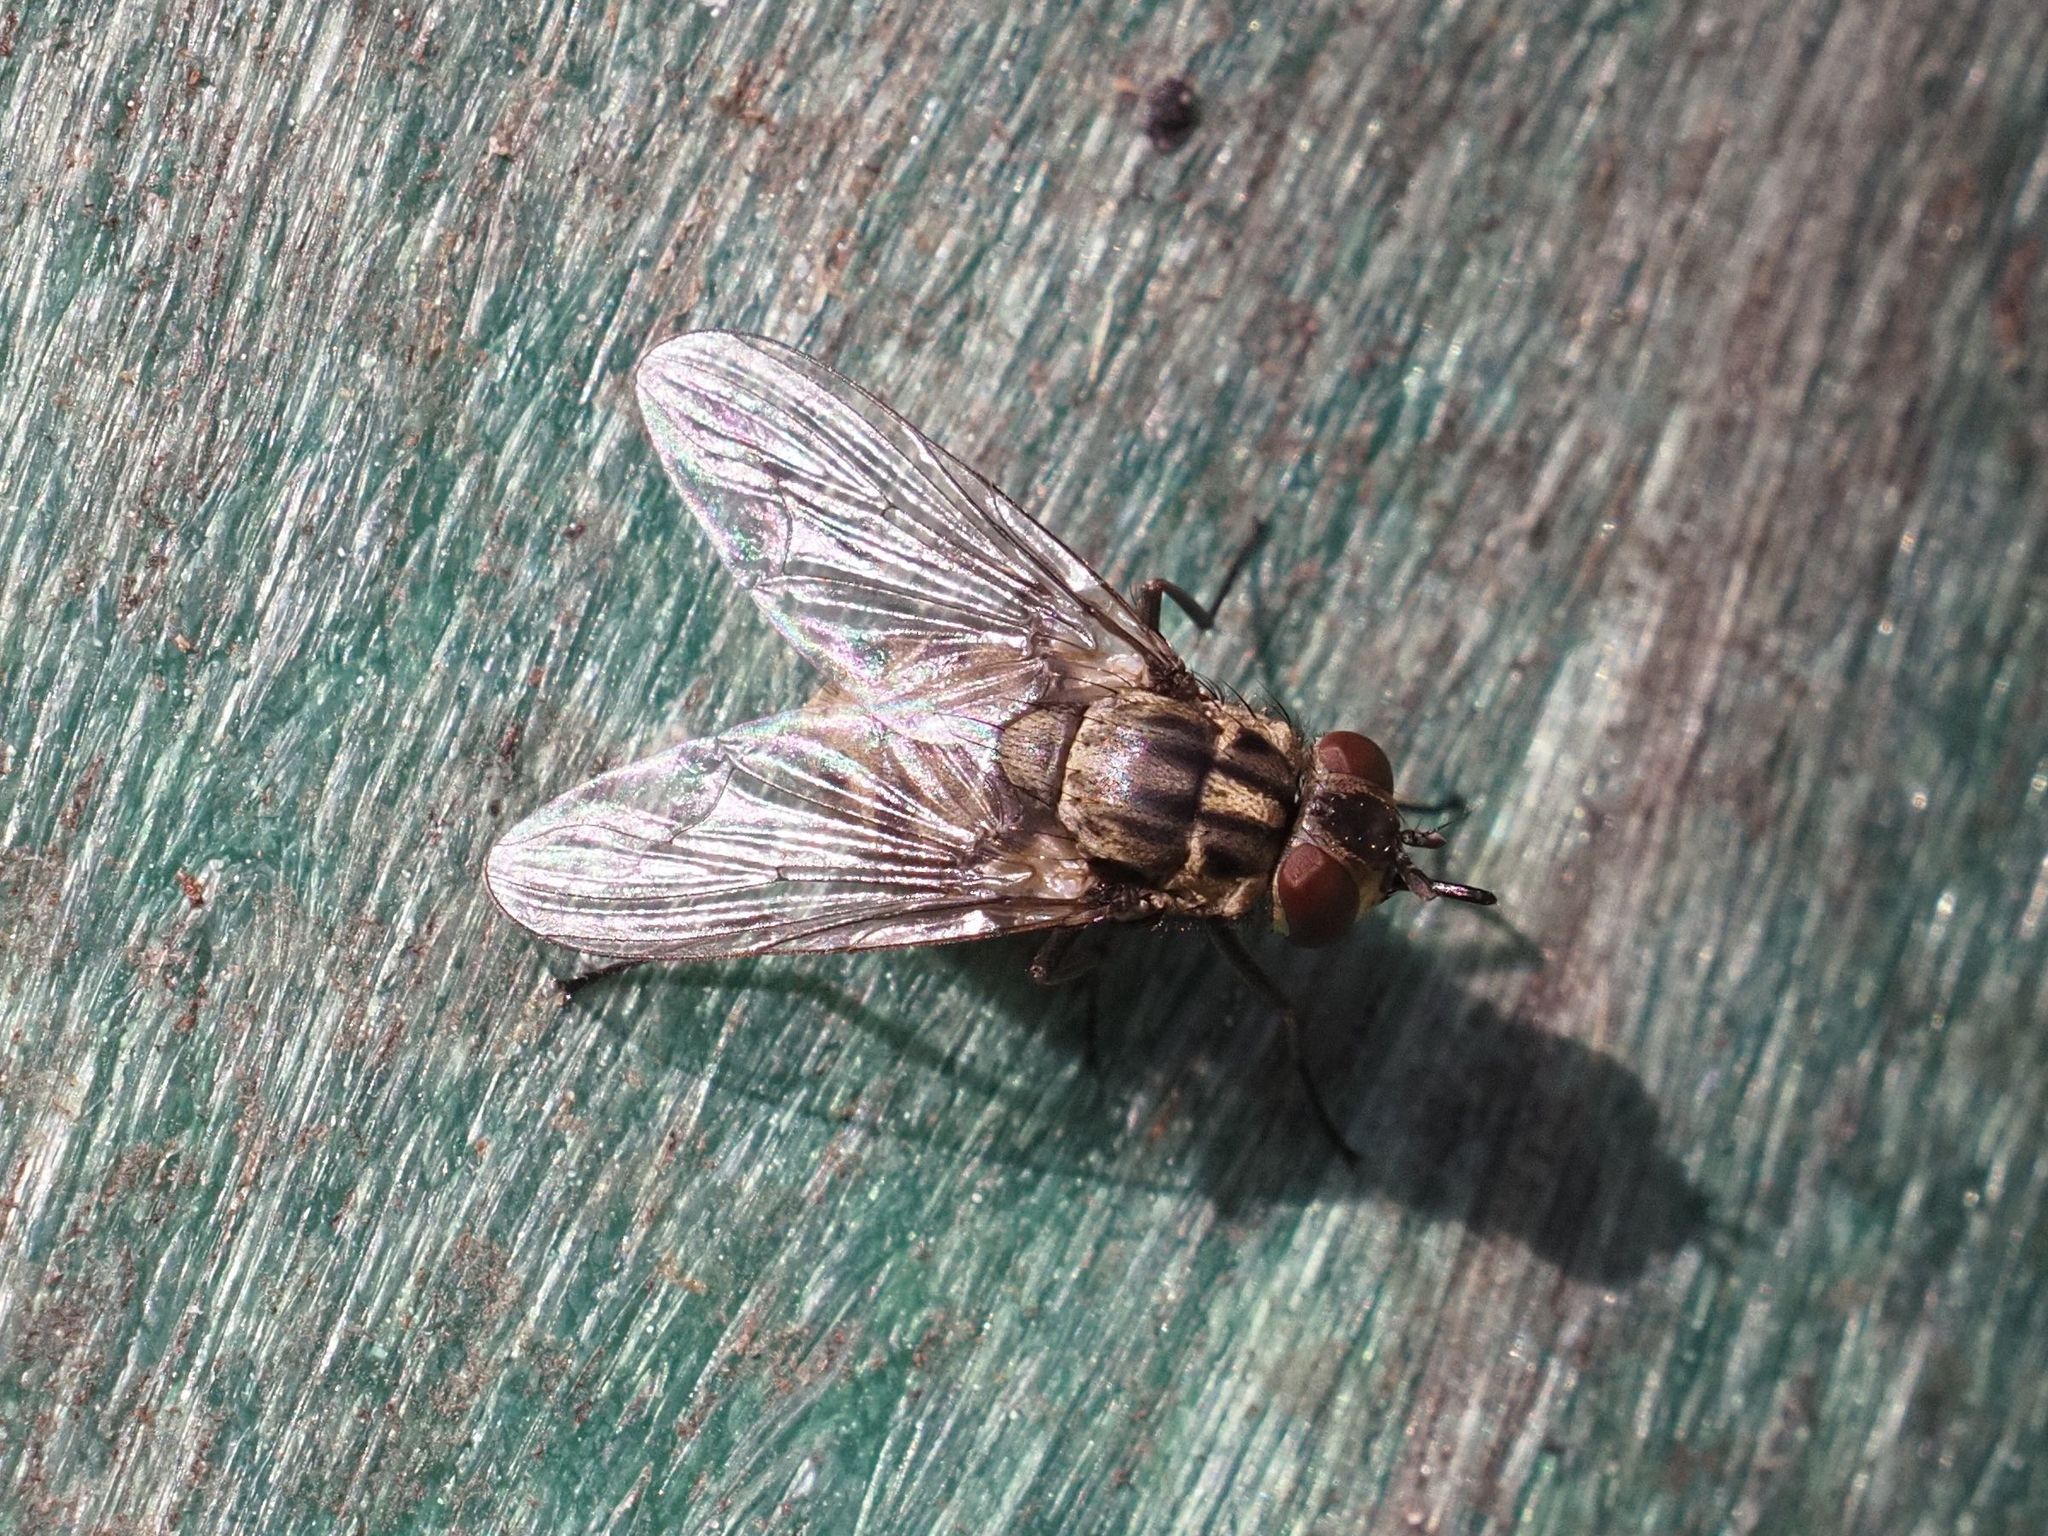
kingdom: Animalia
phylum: Arthropoda
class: Insecta
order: Diptera
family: Muscidae
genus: Stomoxys
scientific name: Stomoxys calcitrans
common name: Stable fly
